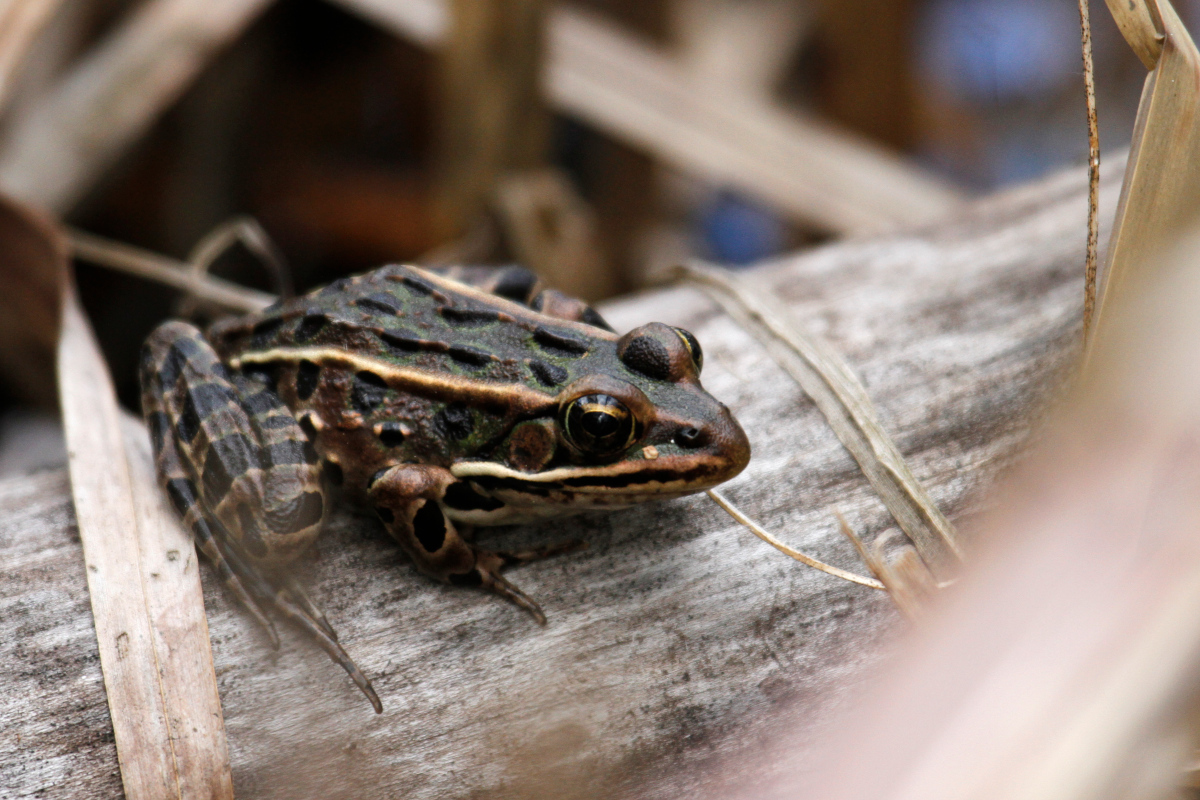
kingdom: Animalia
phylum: Chordata
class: Amphibia
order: Anura
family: Ranidae
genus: Lithobates
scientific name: Lithobates pipiens
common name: Northern leopard frog
